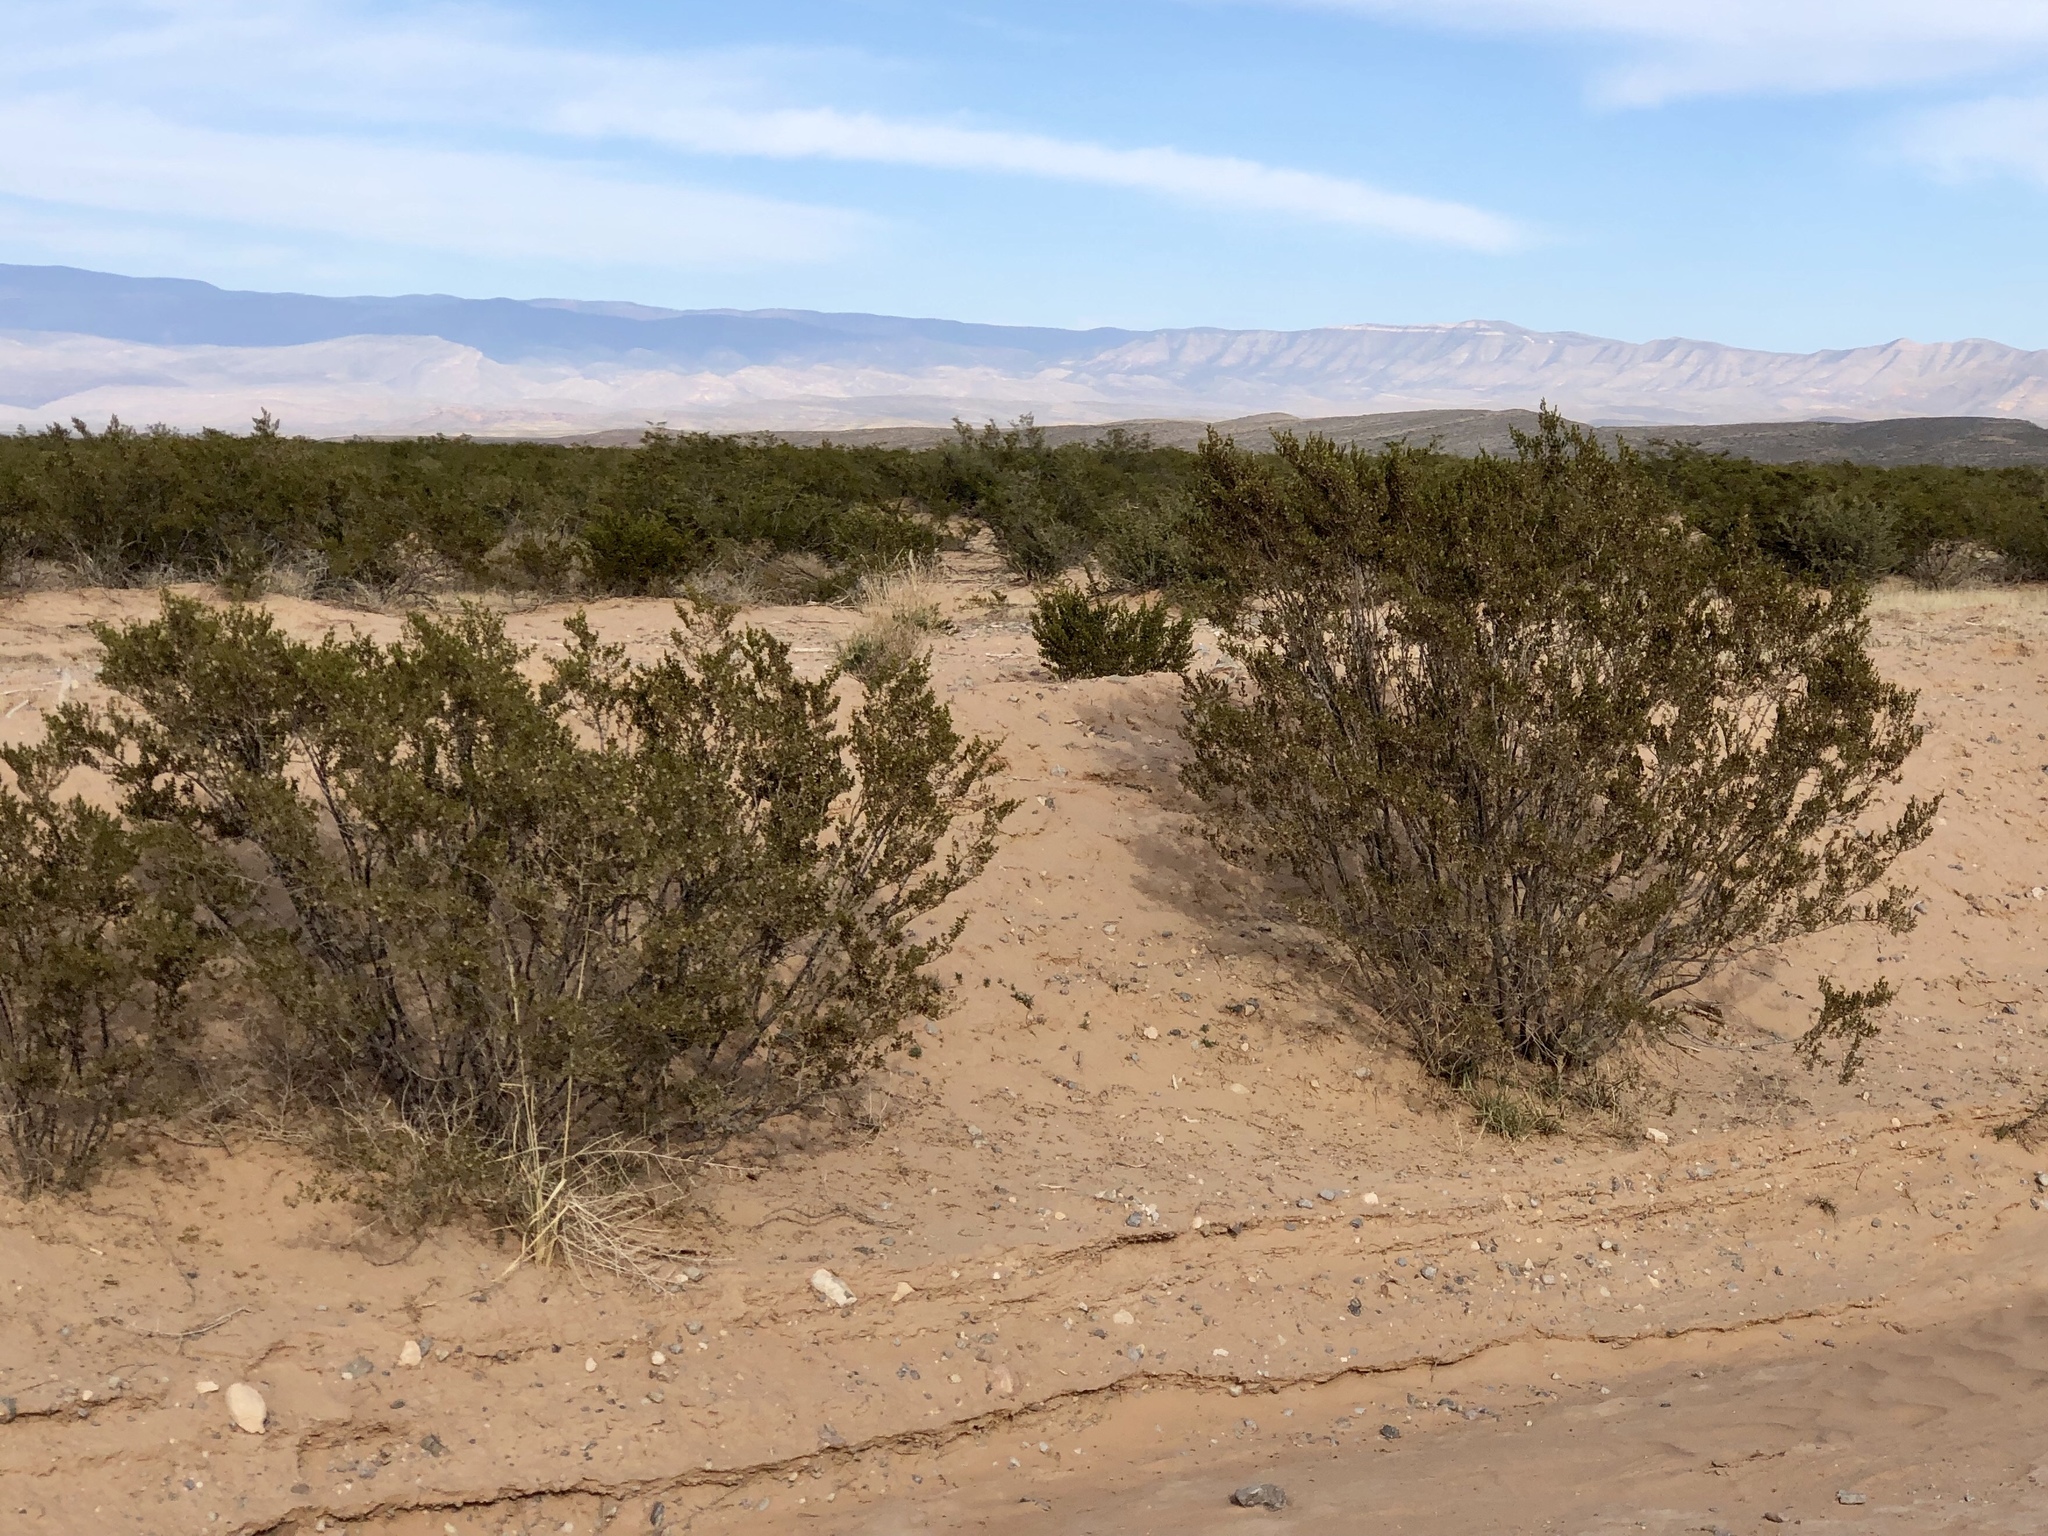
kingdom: Plantae
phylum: Tracheophyta
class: Magnoliopsida
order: Zygophyllales
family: Zygophyllaceae
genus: Larrea
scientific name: Larrea tridentata
